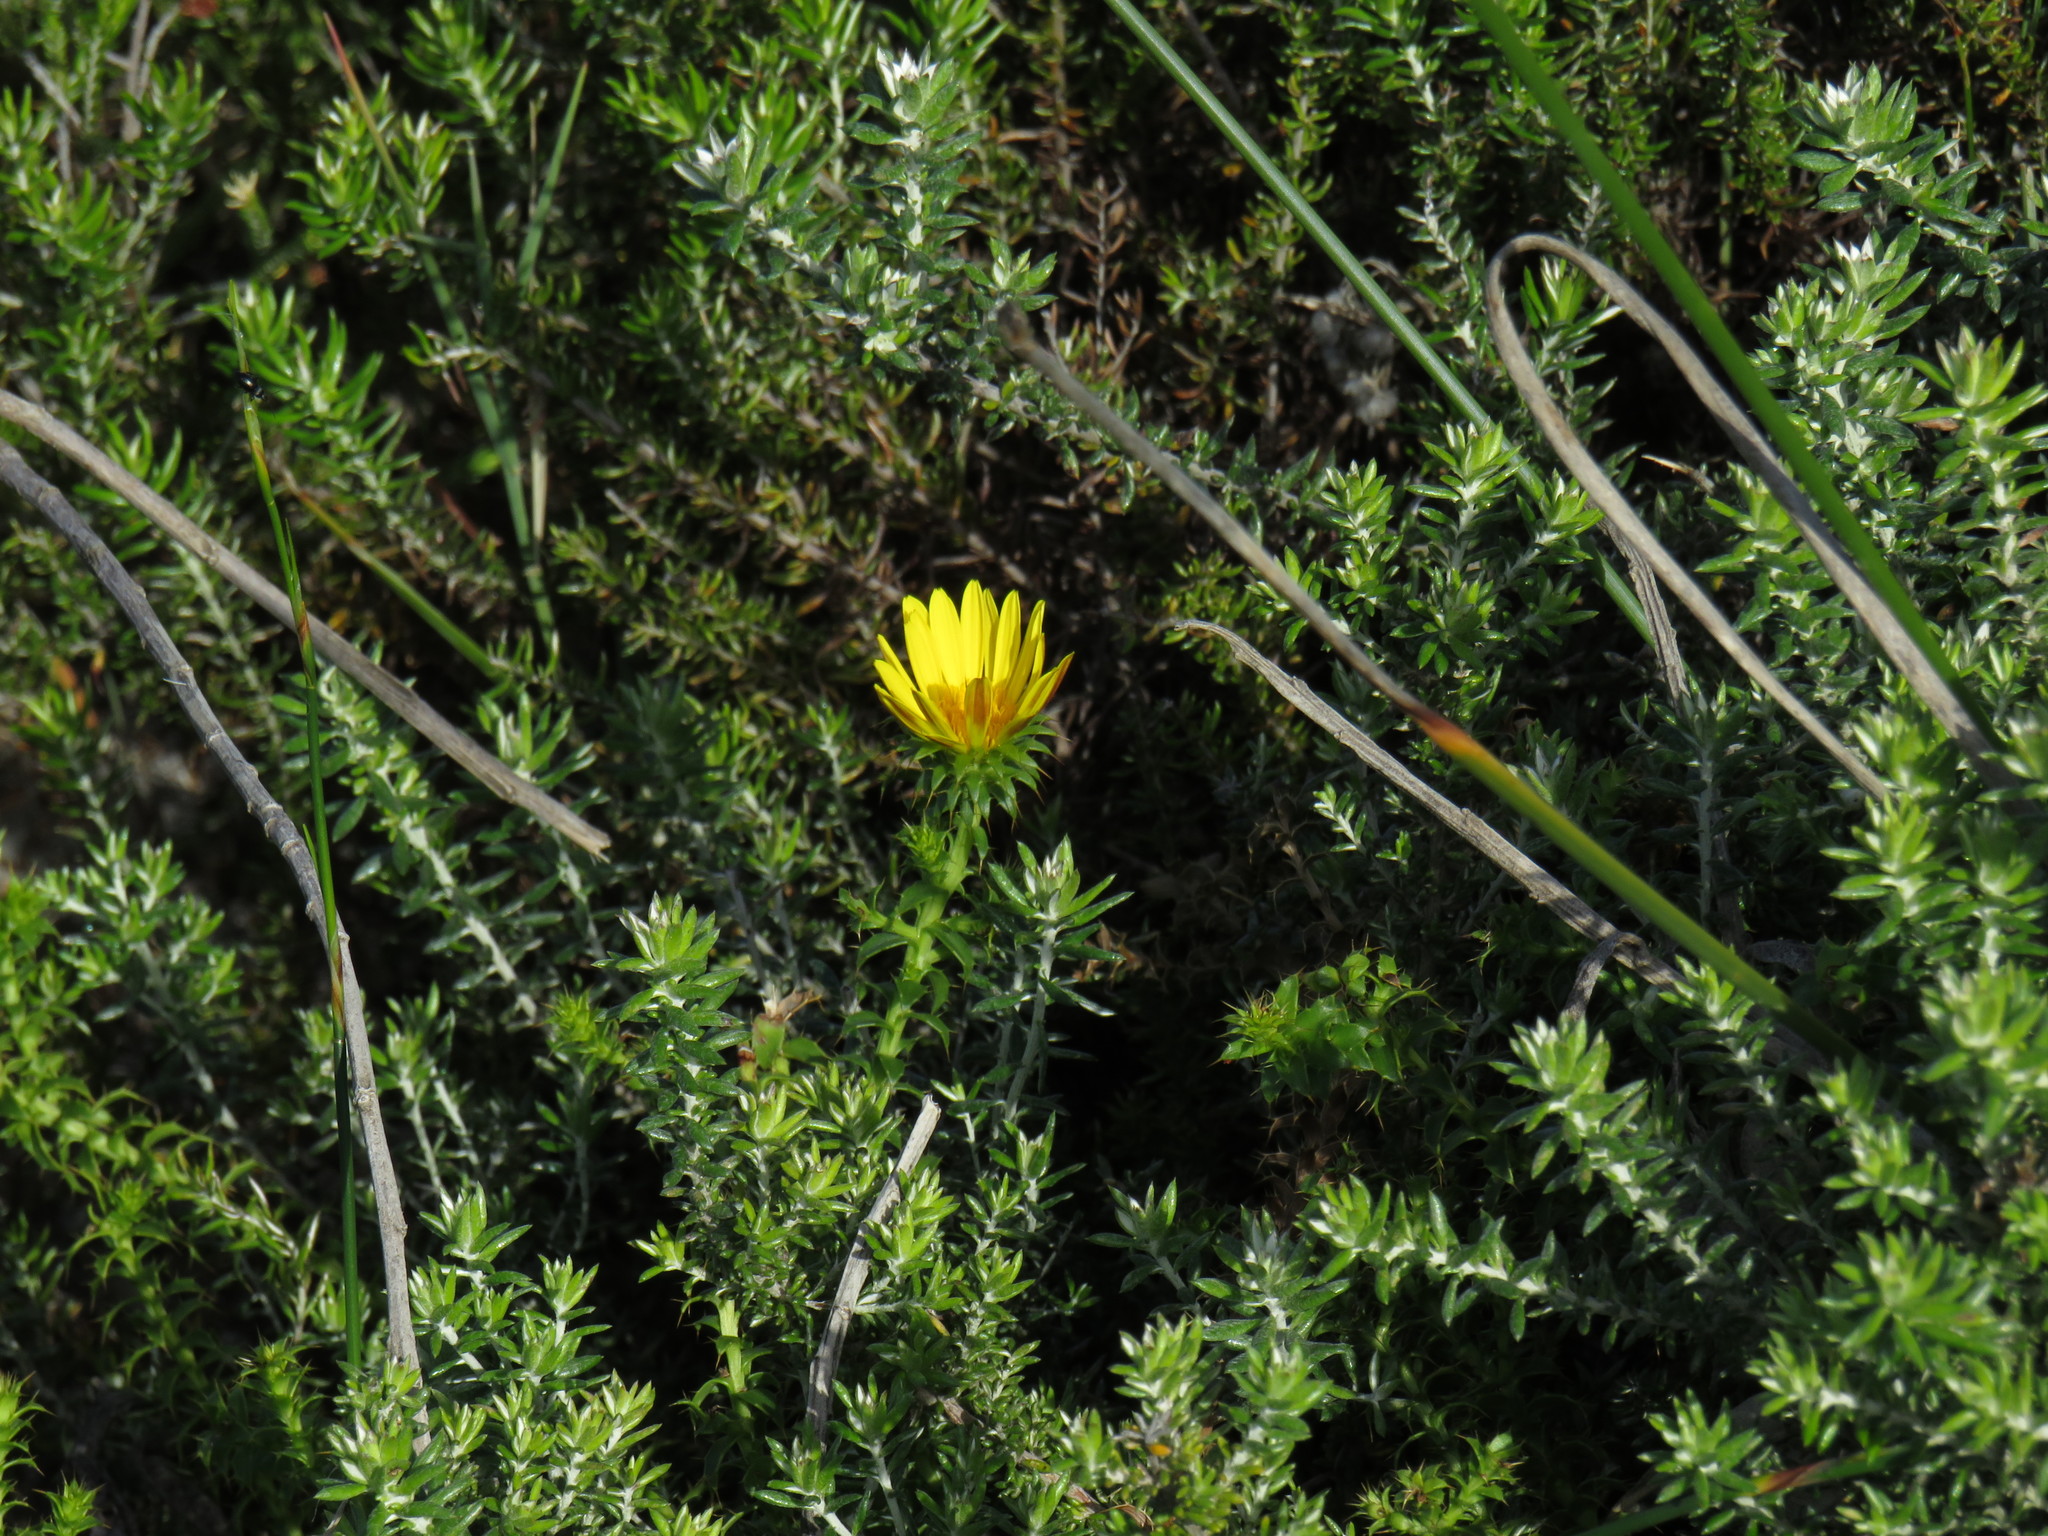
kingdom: Plantae
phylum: Tracheophyta
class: Magnoliopsida
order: Asterales
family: Asteraceae
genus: Cullumia
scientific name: Cullumia setosa
